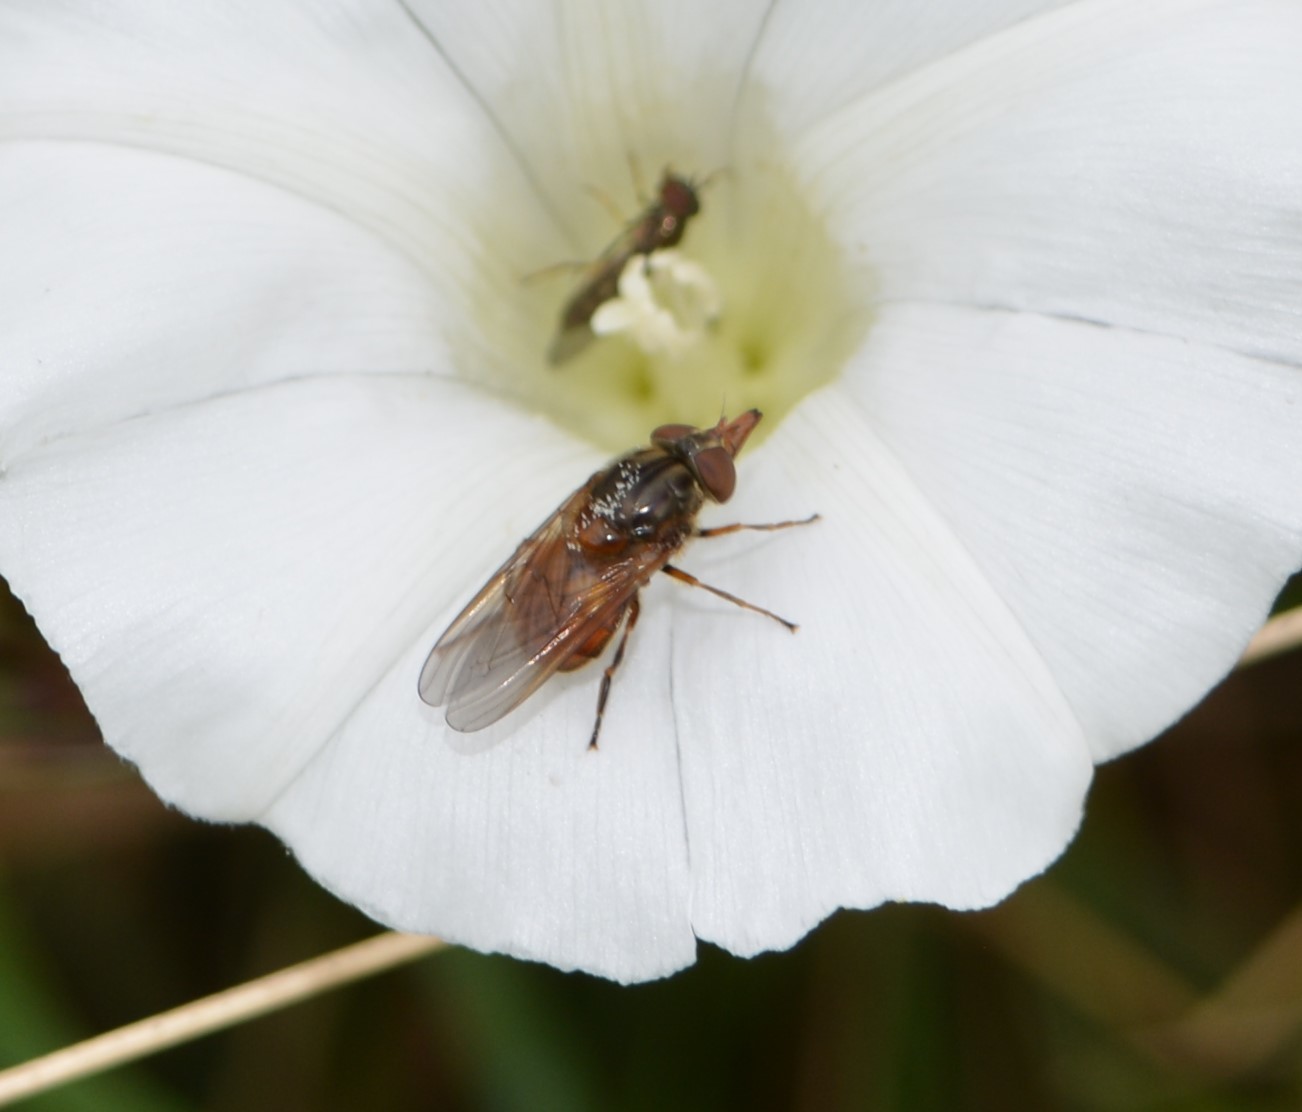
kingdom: Animalia
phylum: Arthropoda
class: Insecta
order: Diptera
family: Syrphidae
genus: Rhingia
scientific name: Rhingia campestris
